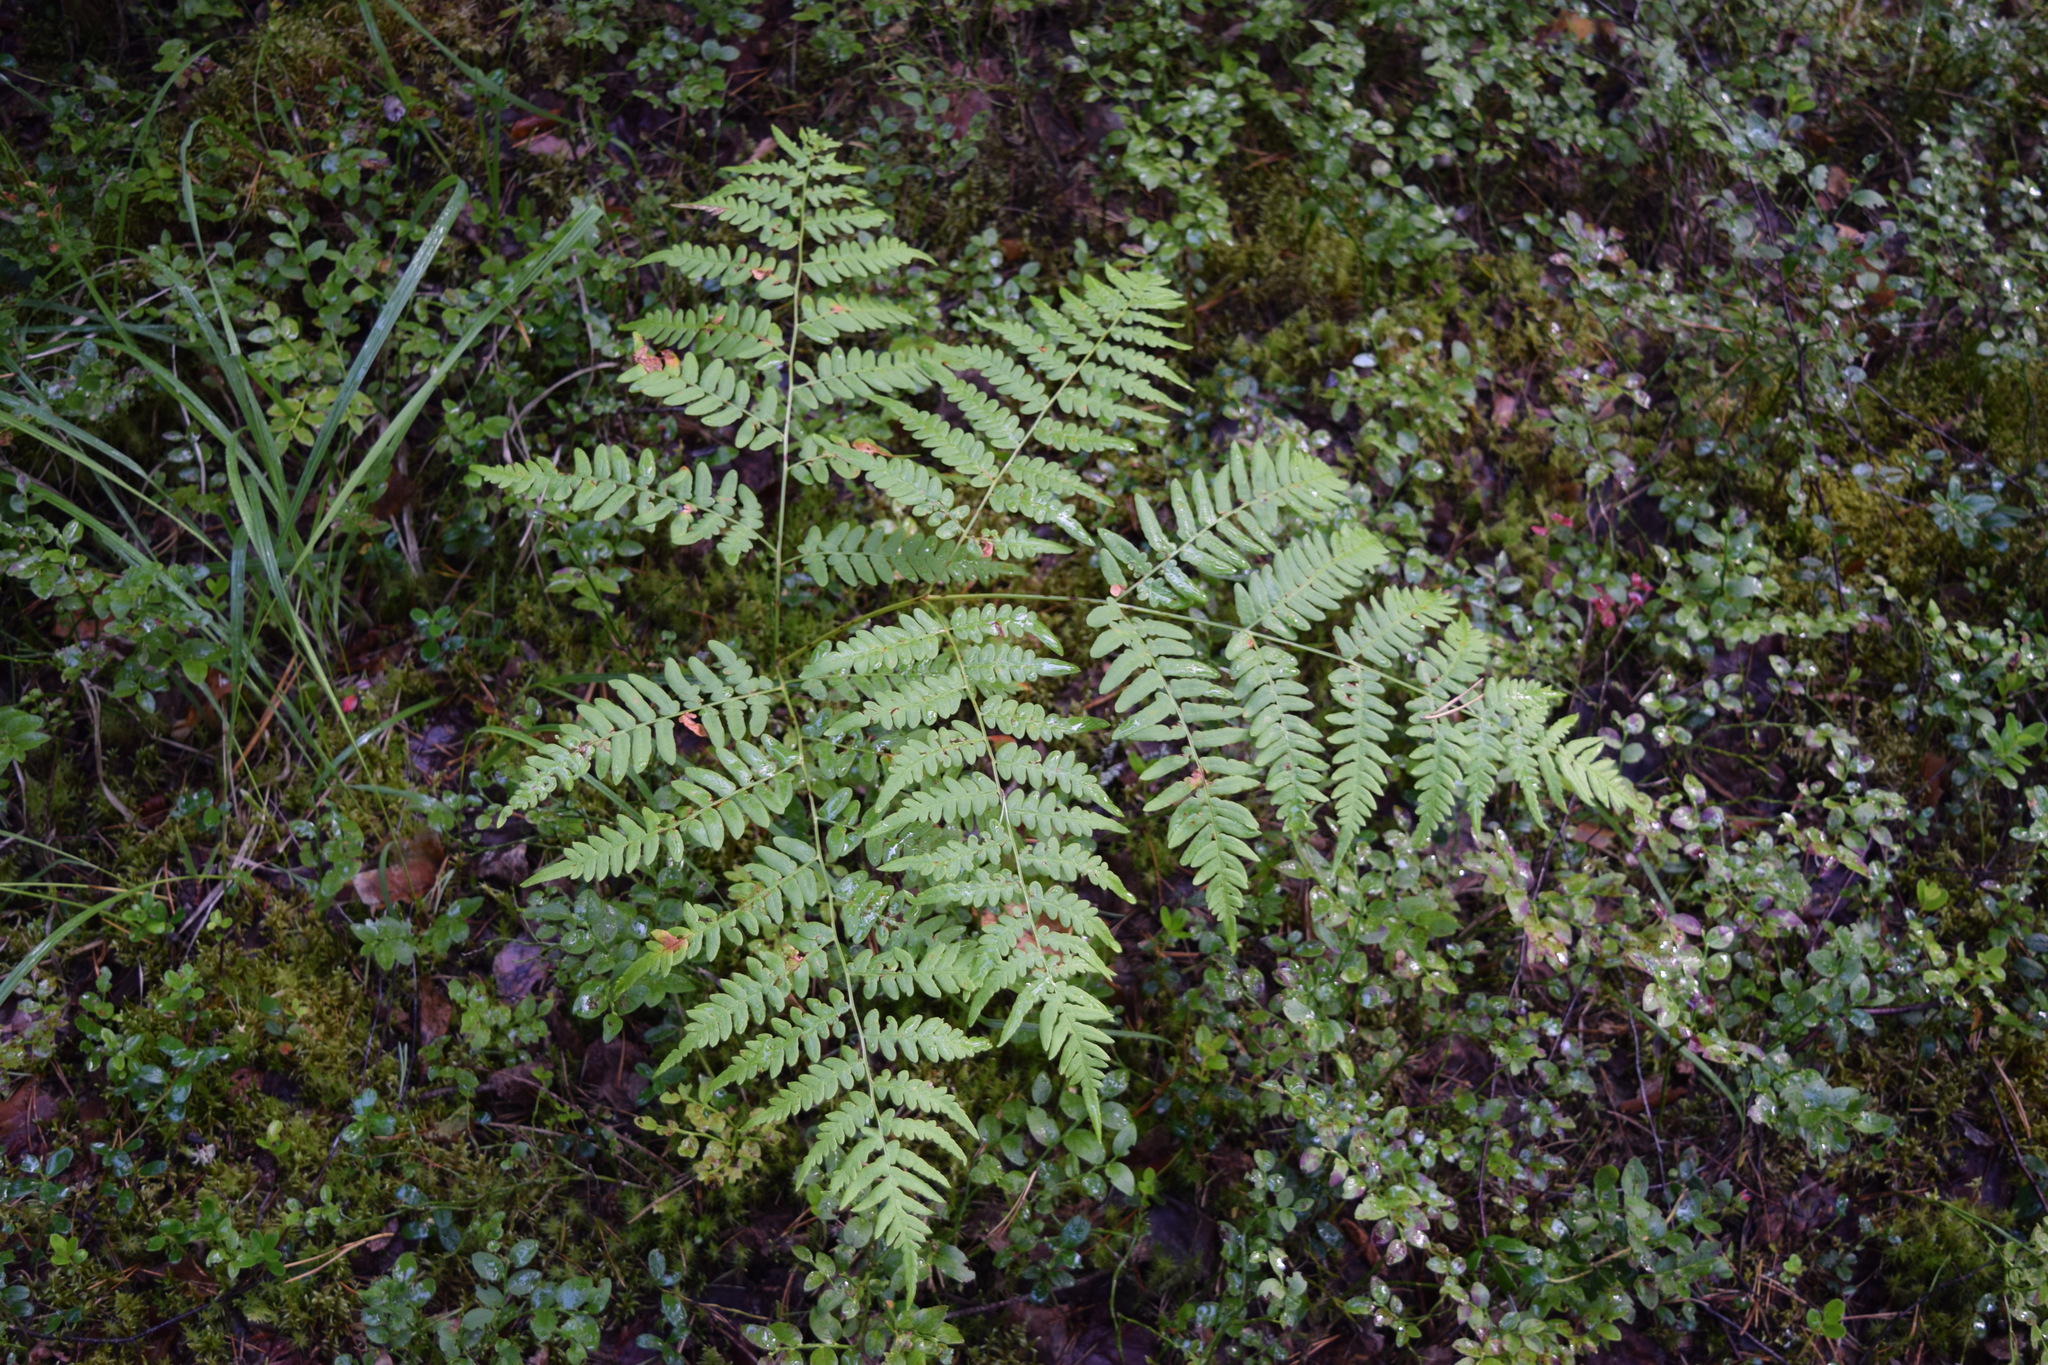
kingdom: Plantae
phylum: Tracheophyta
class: Polypodiopsida
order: Polypodiales
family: Dennstaedtiaceae
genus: Pteridium
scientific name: Pteridium aquilinum
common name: Bracken
